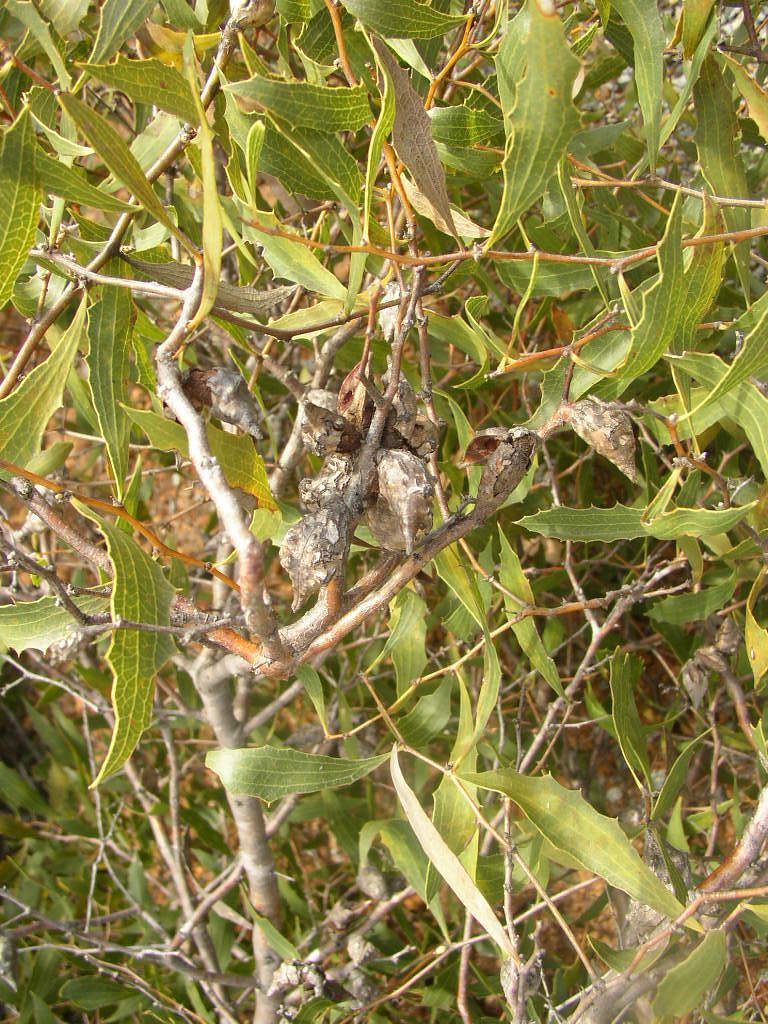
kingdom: Plantae
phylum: Tracheophyta
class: Magnoliopsida
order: Proteales
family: Proteaceae
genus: Hakea
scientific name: Hakea anadenia
